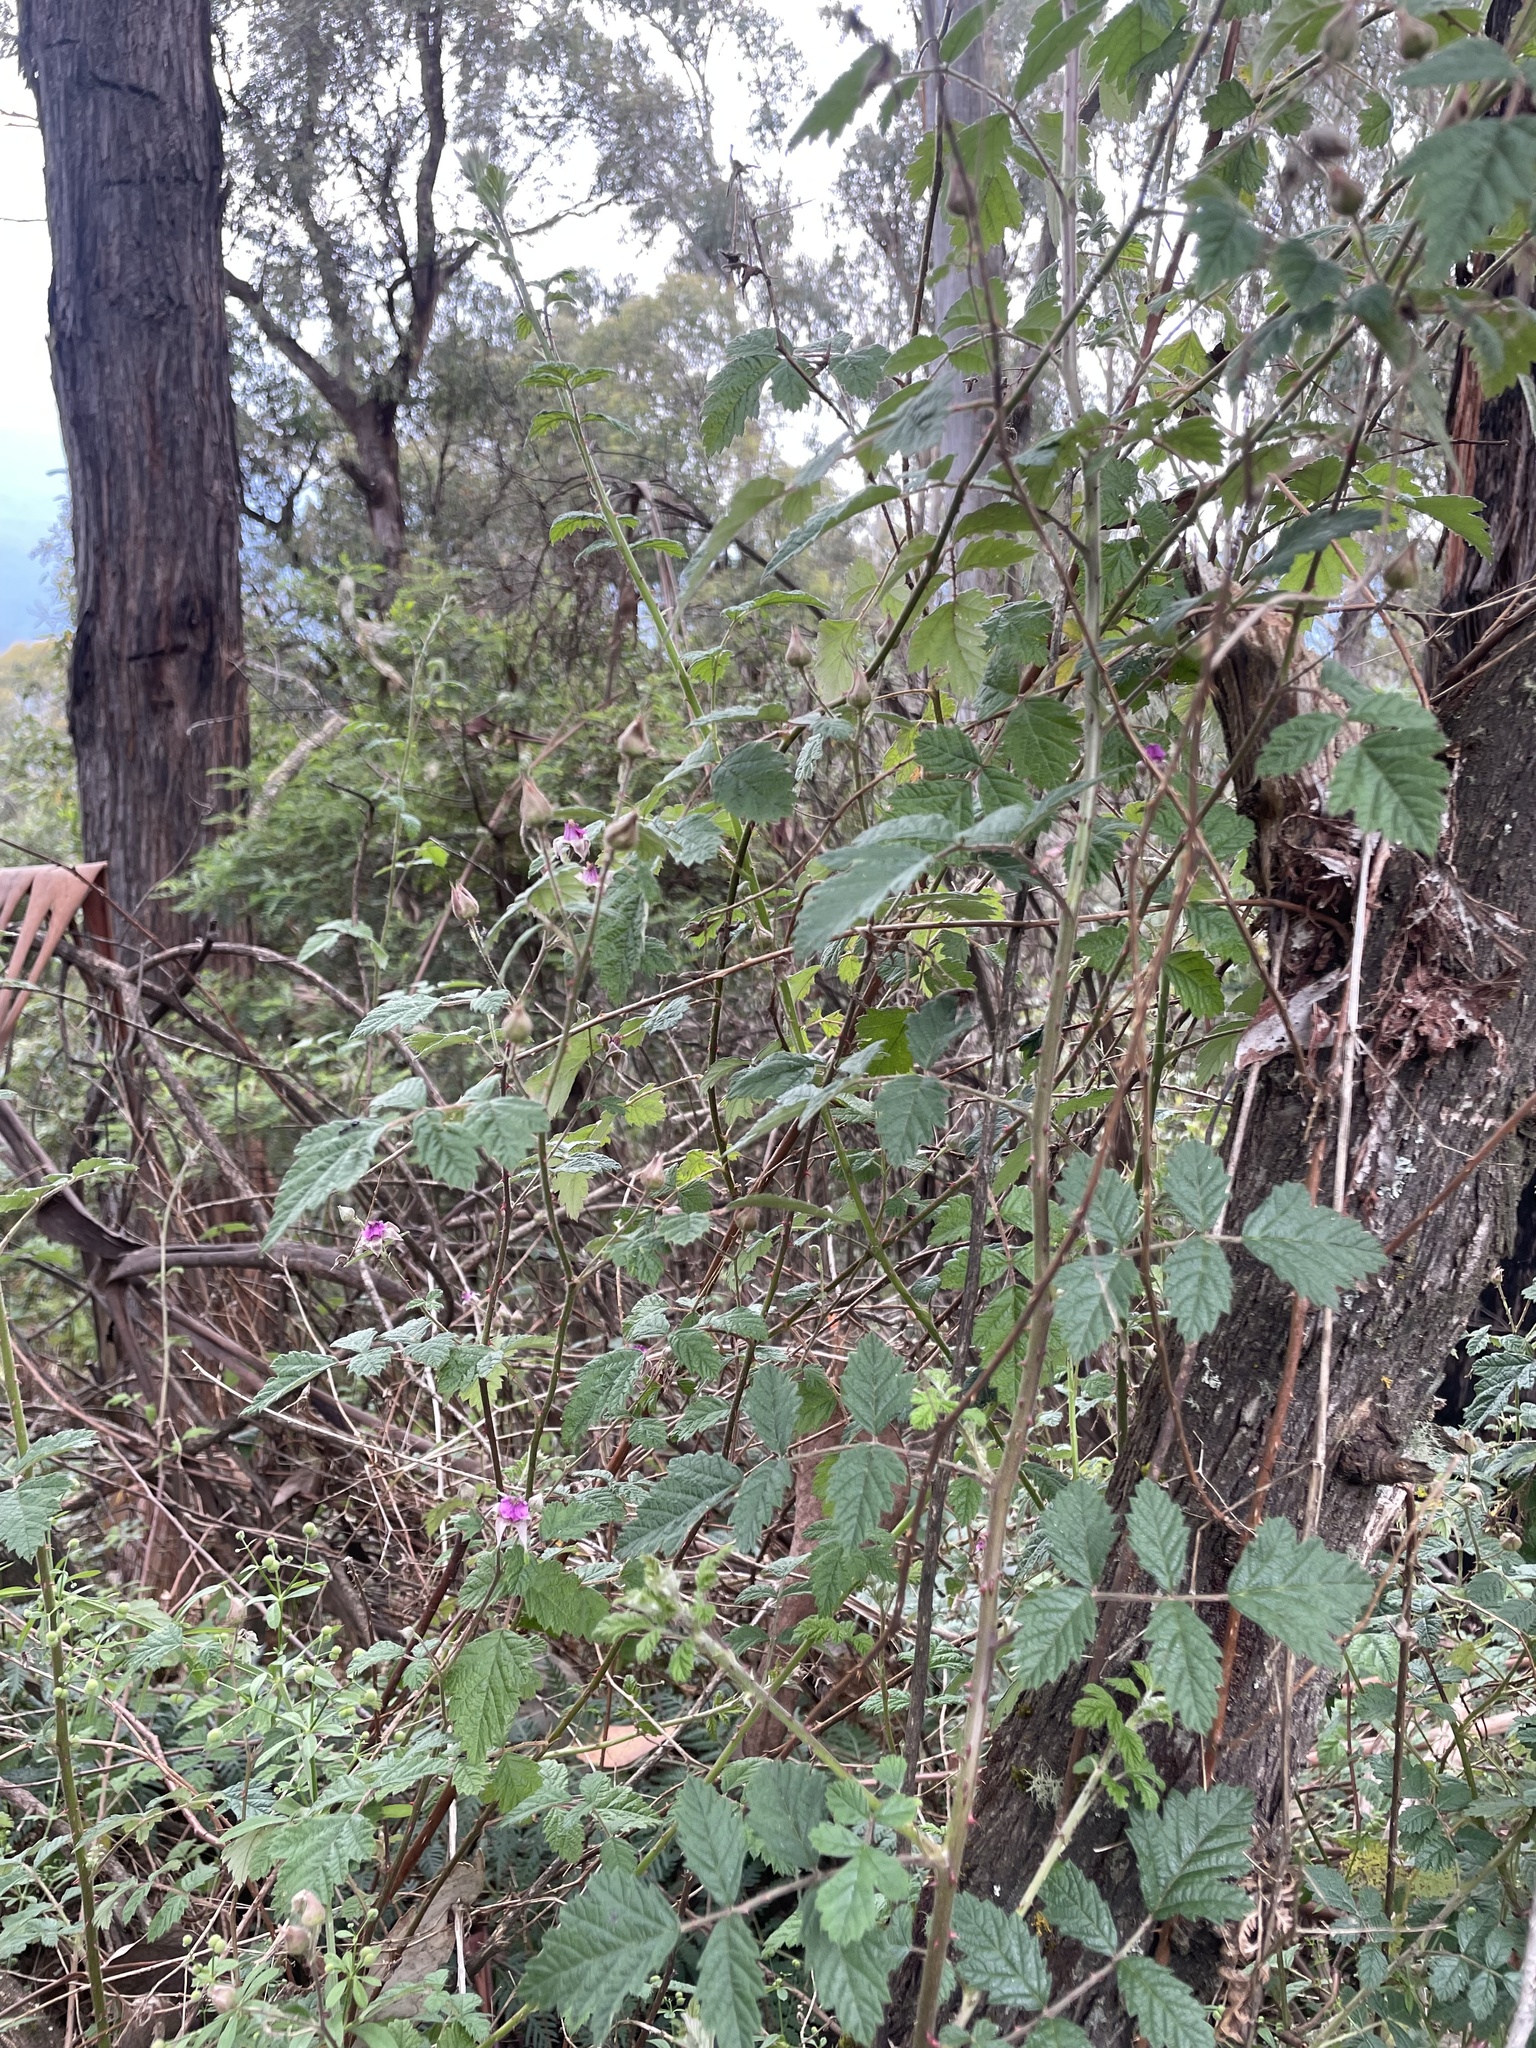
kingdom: Plantae
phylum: Tracheophyta
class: Magnoliopsida
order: Rosales
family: Rosaceae
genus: Rubus
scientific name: Rubus parvifolius
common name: Threeleaf blackberry
